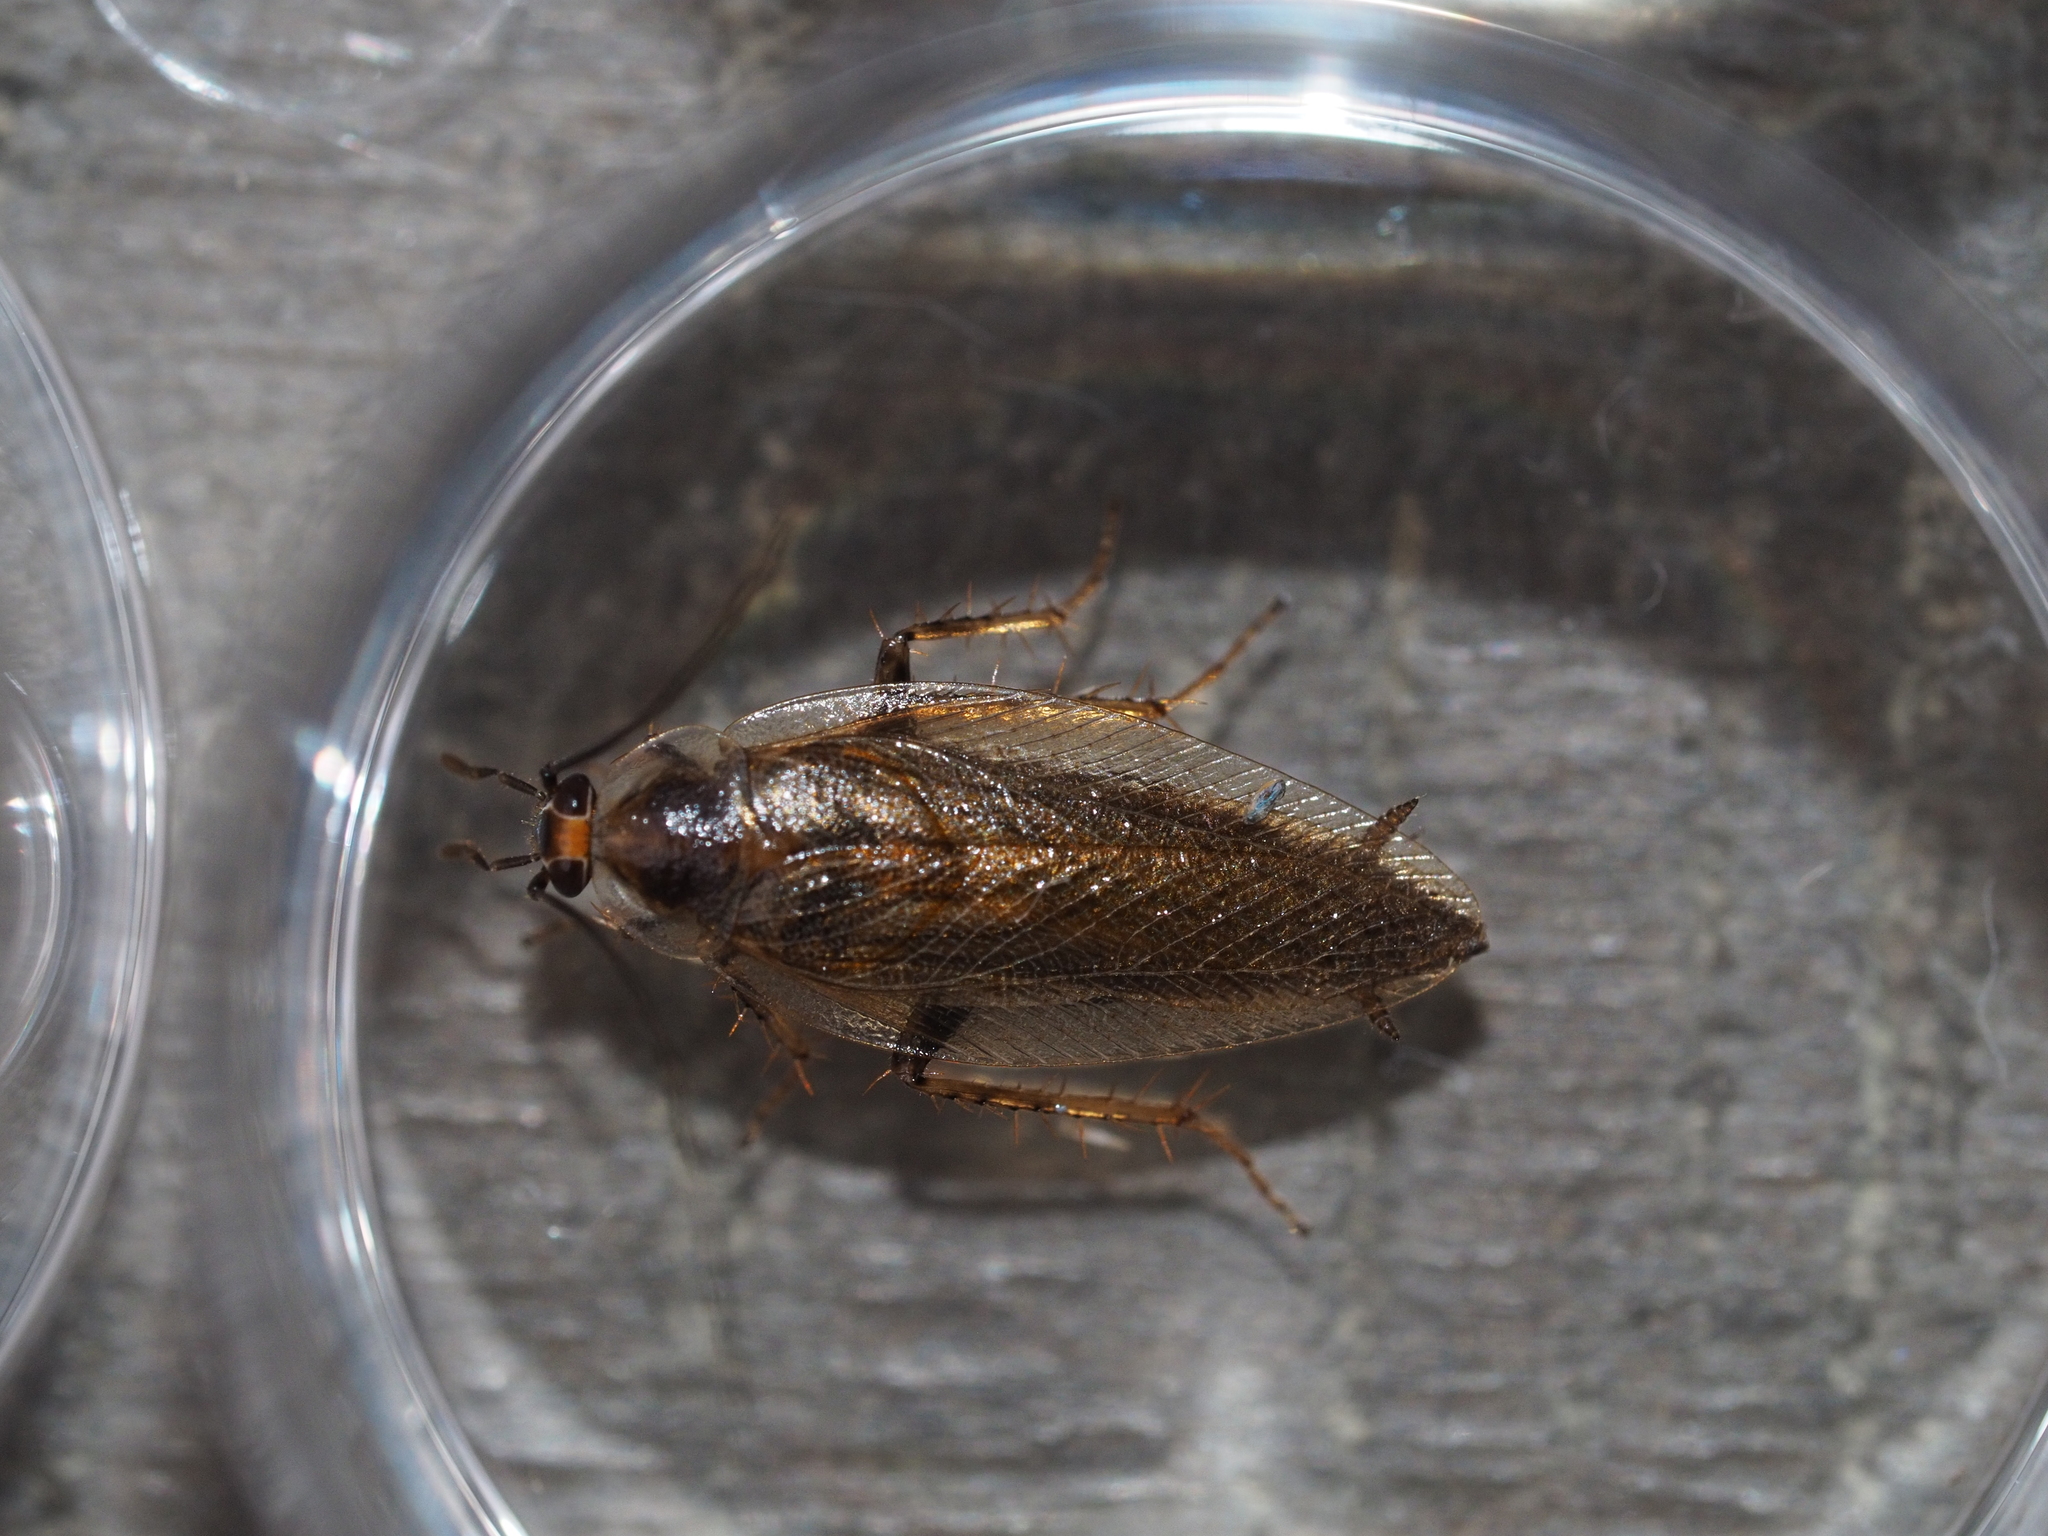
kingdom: Animalia
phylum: Arthropoda
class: Insecta
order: Blattodea
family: Ectobiidae
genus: Ectobius
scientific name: Ectobius vittiventris
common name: Garden cockroach
